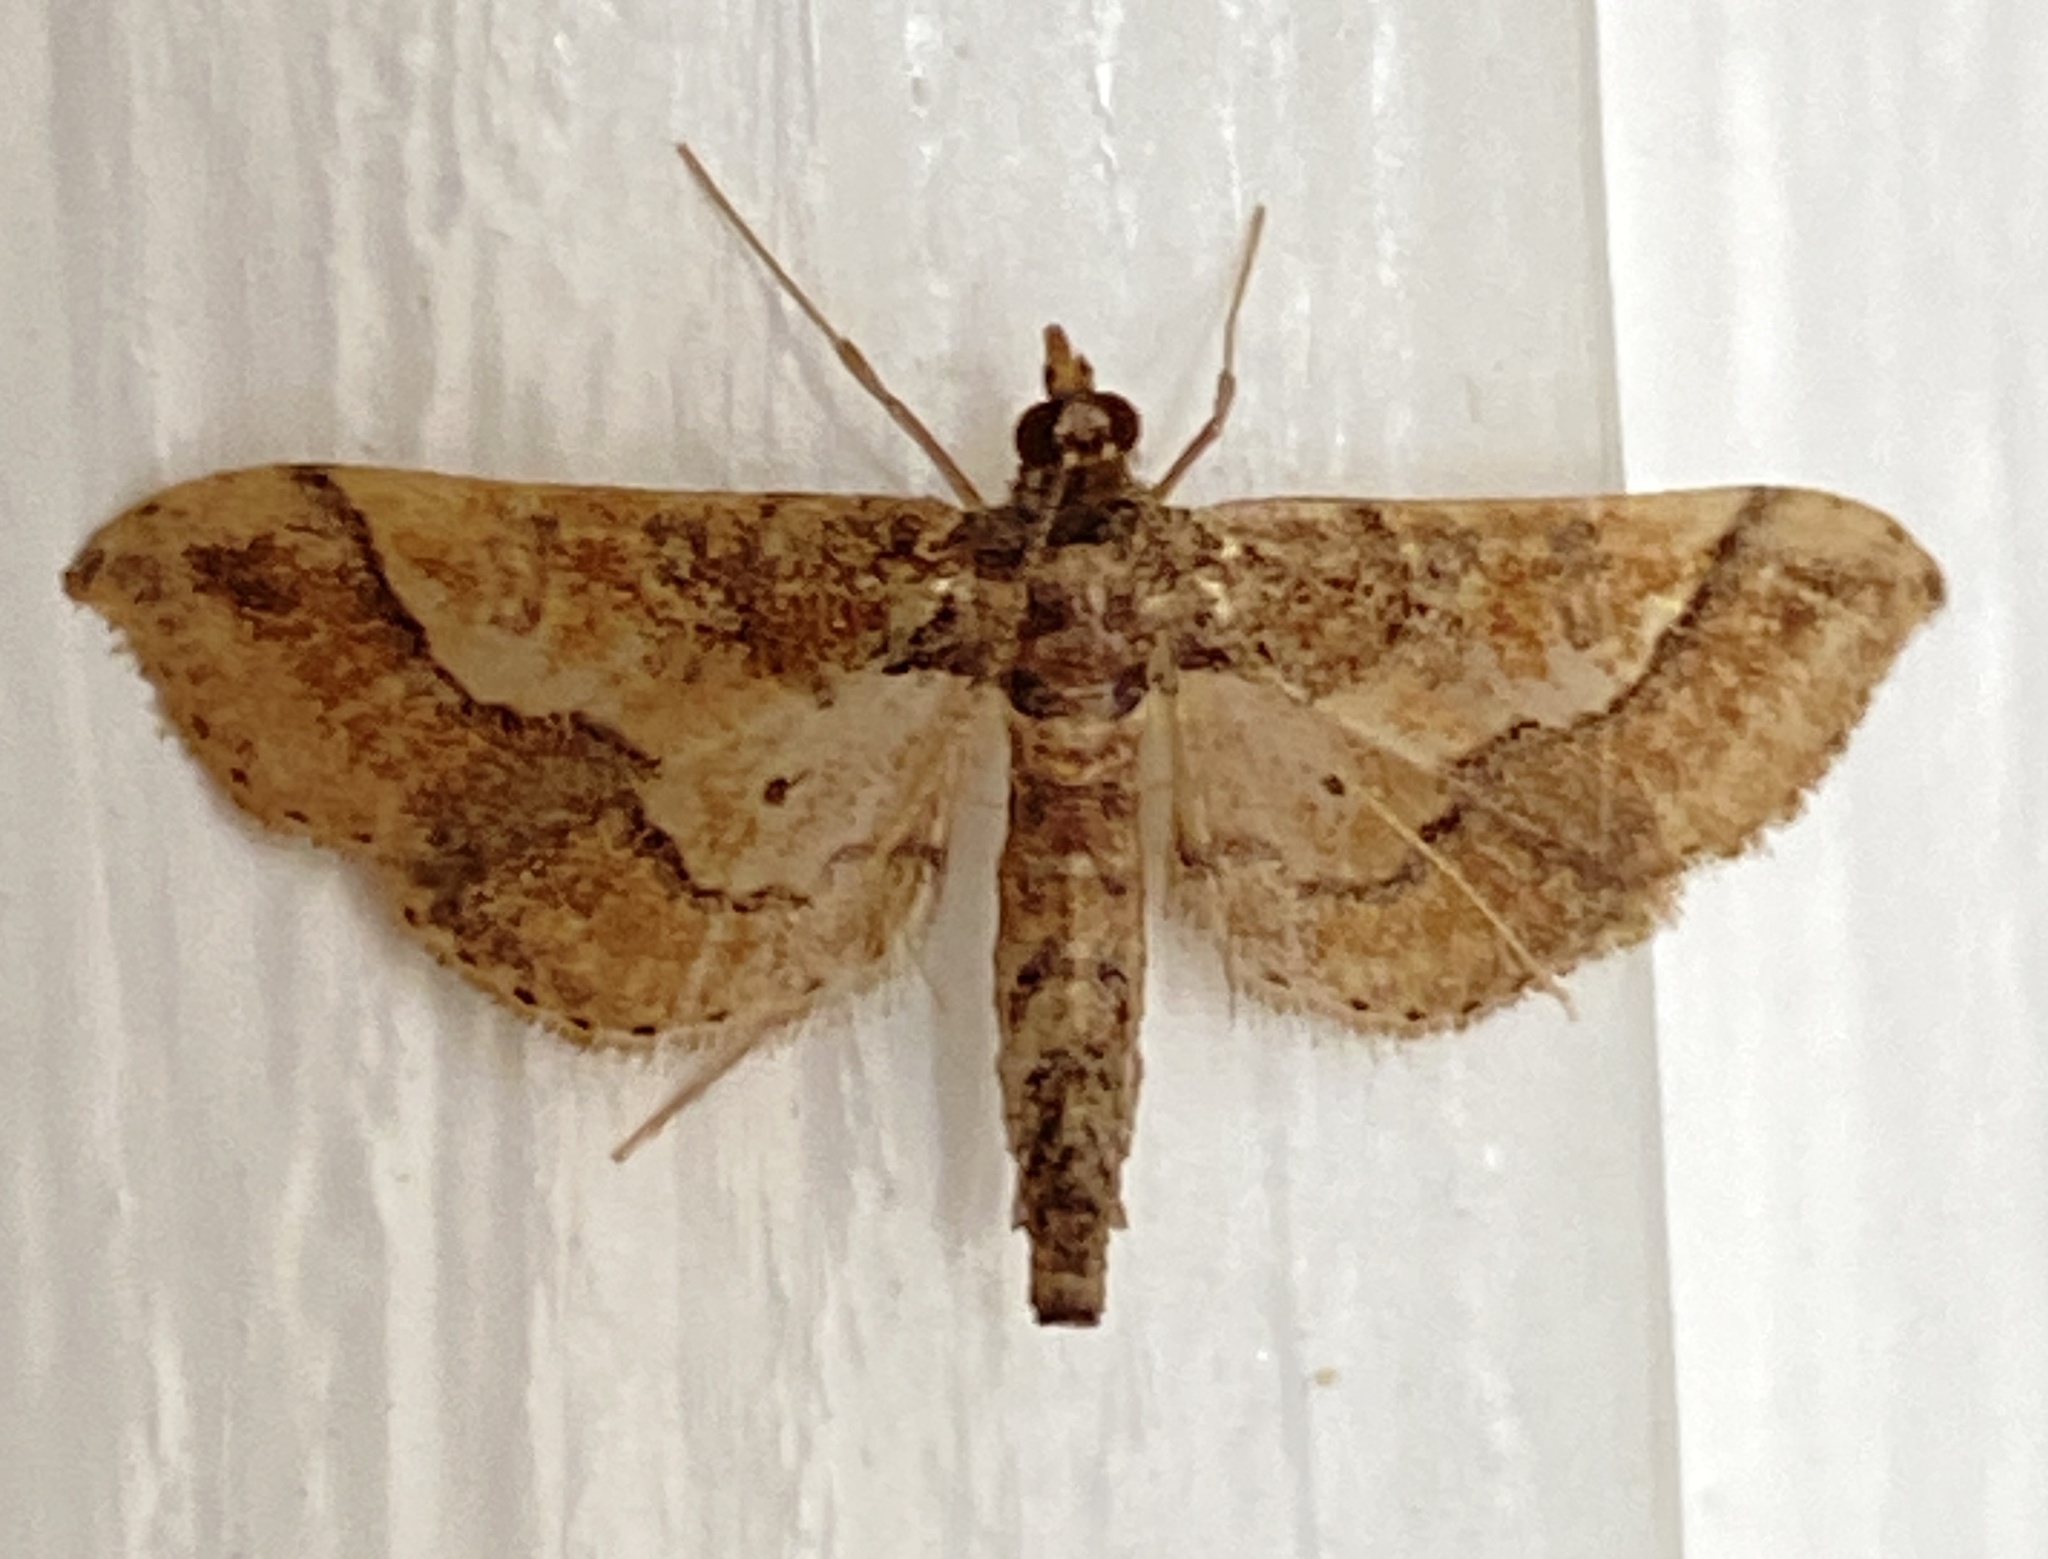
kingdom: Animalia
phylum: Arthropoda
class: Insecta
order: Lepidoptera
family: Crambidae
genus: Hydriris
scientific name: Hydriris ornatalis
